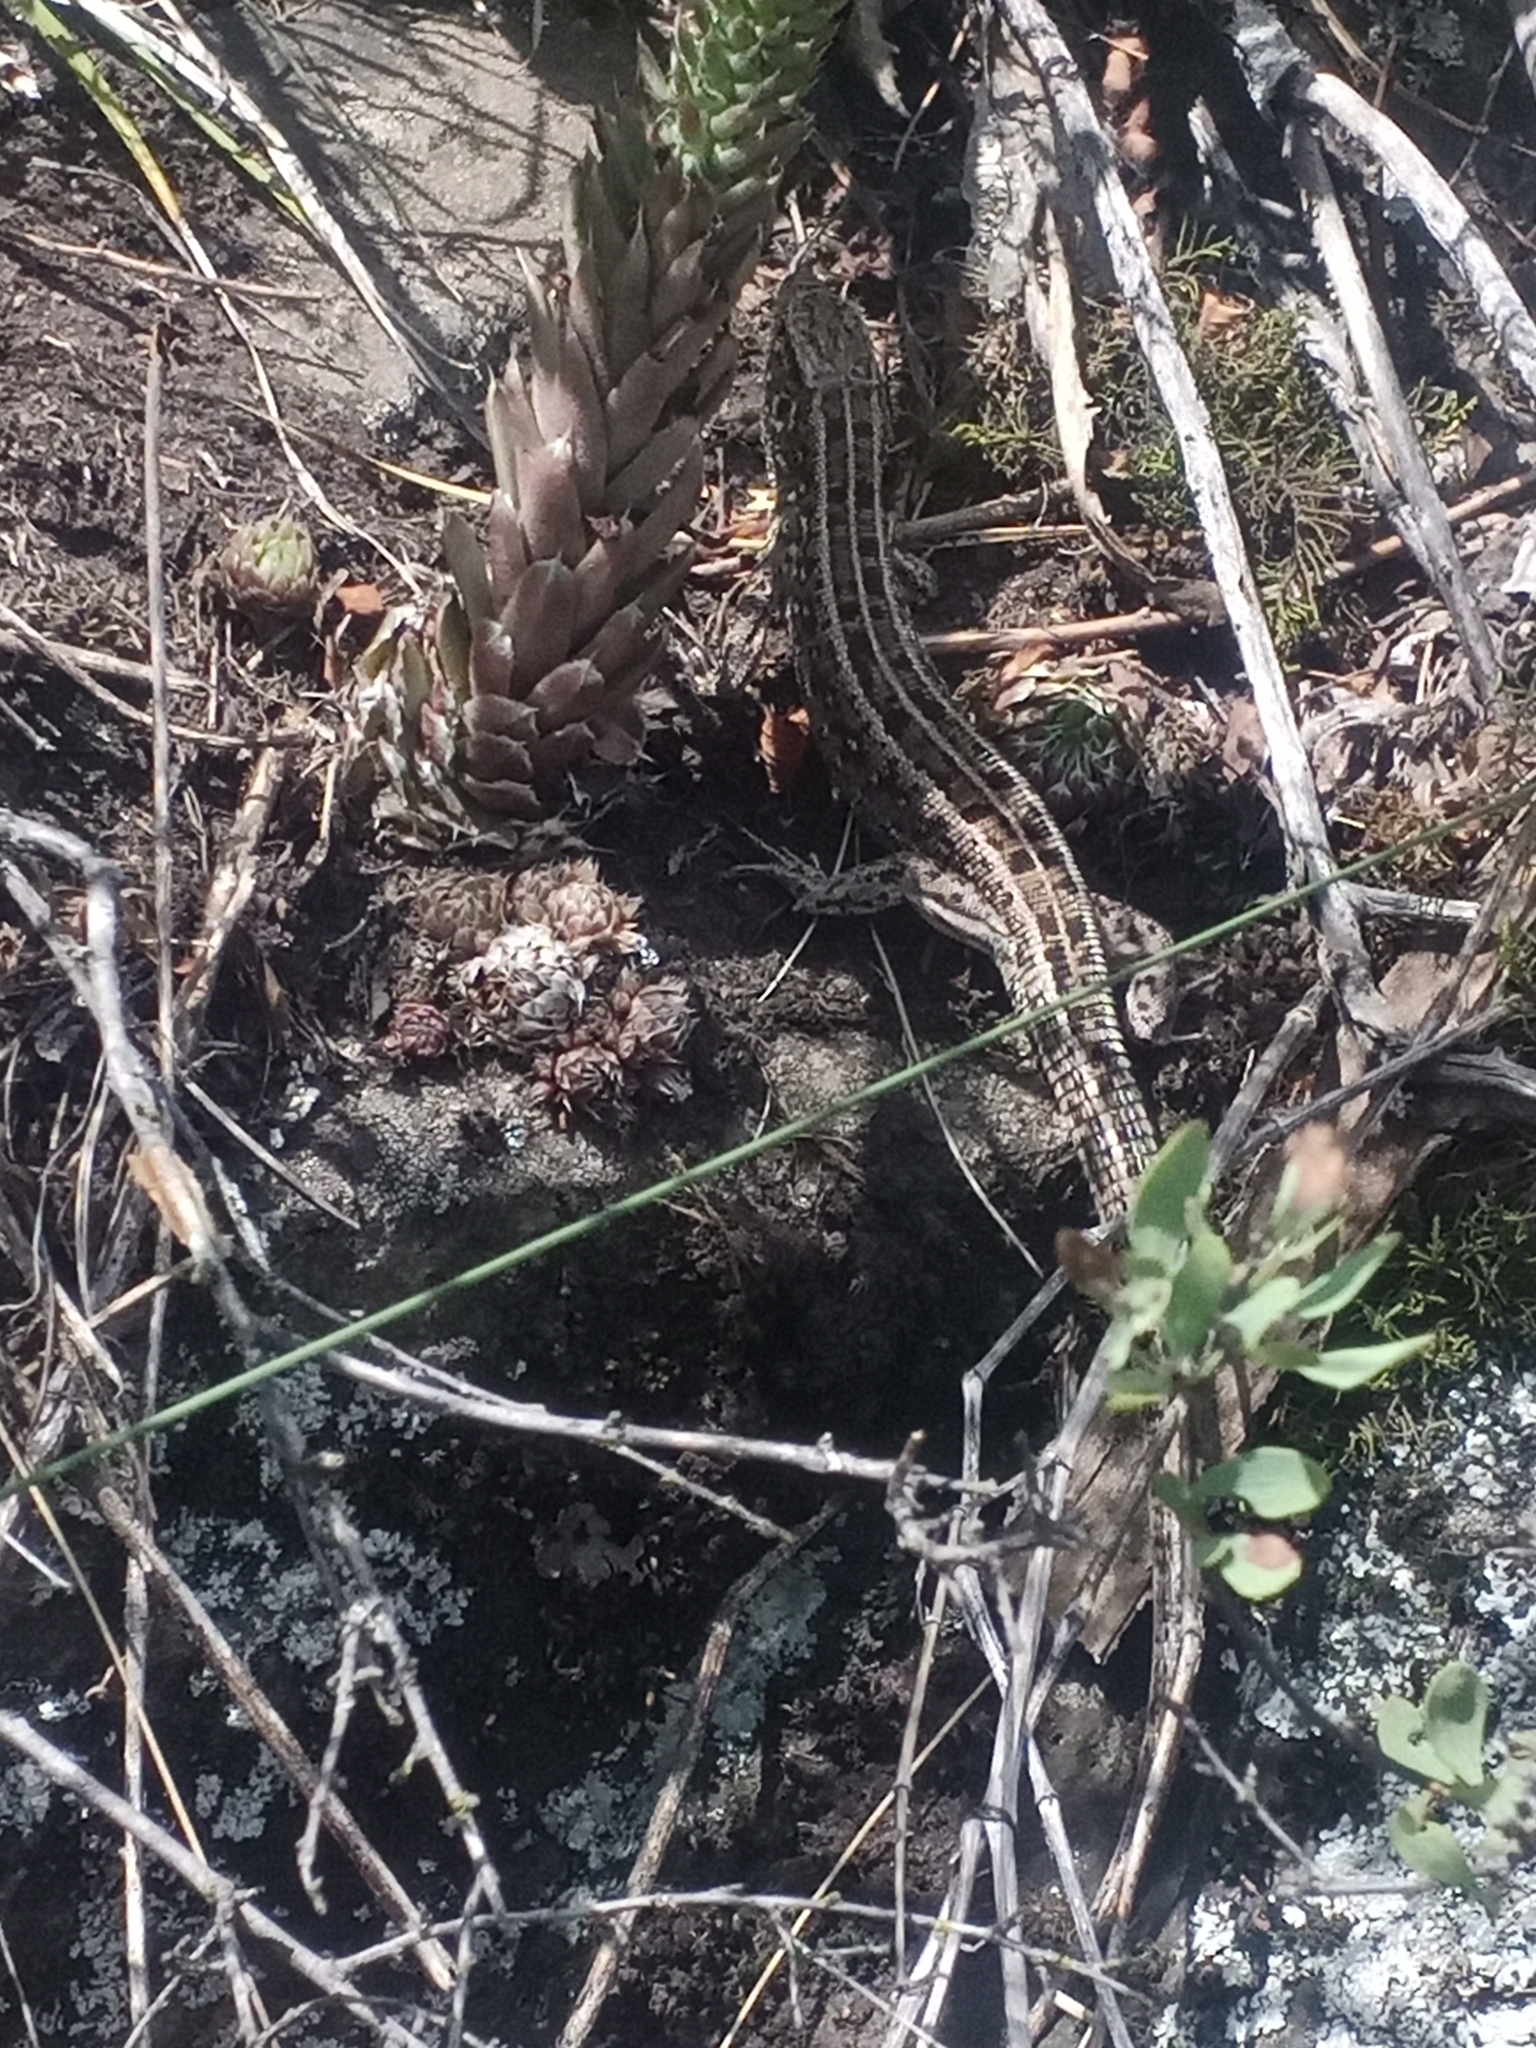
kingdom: Animalia
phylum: Chordata
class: Squamata
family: Lacertidae
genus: Lacerta
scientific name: Lacerta agilis
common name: Sand lizard
